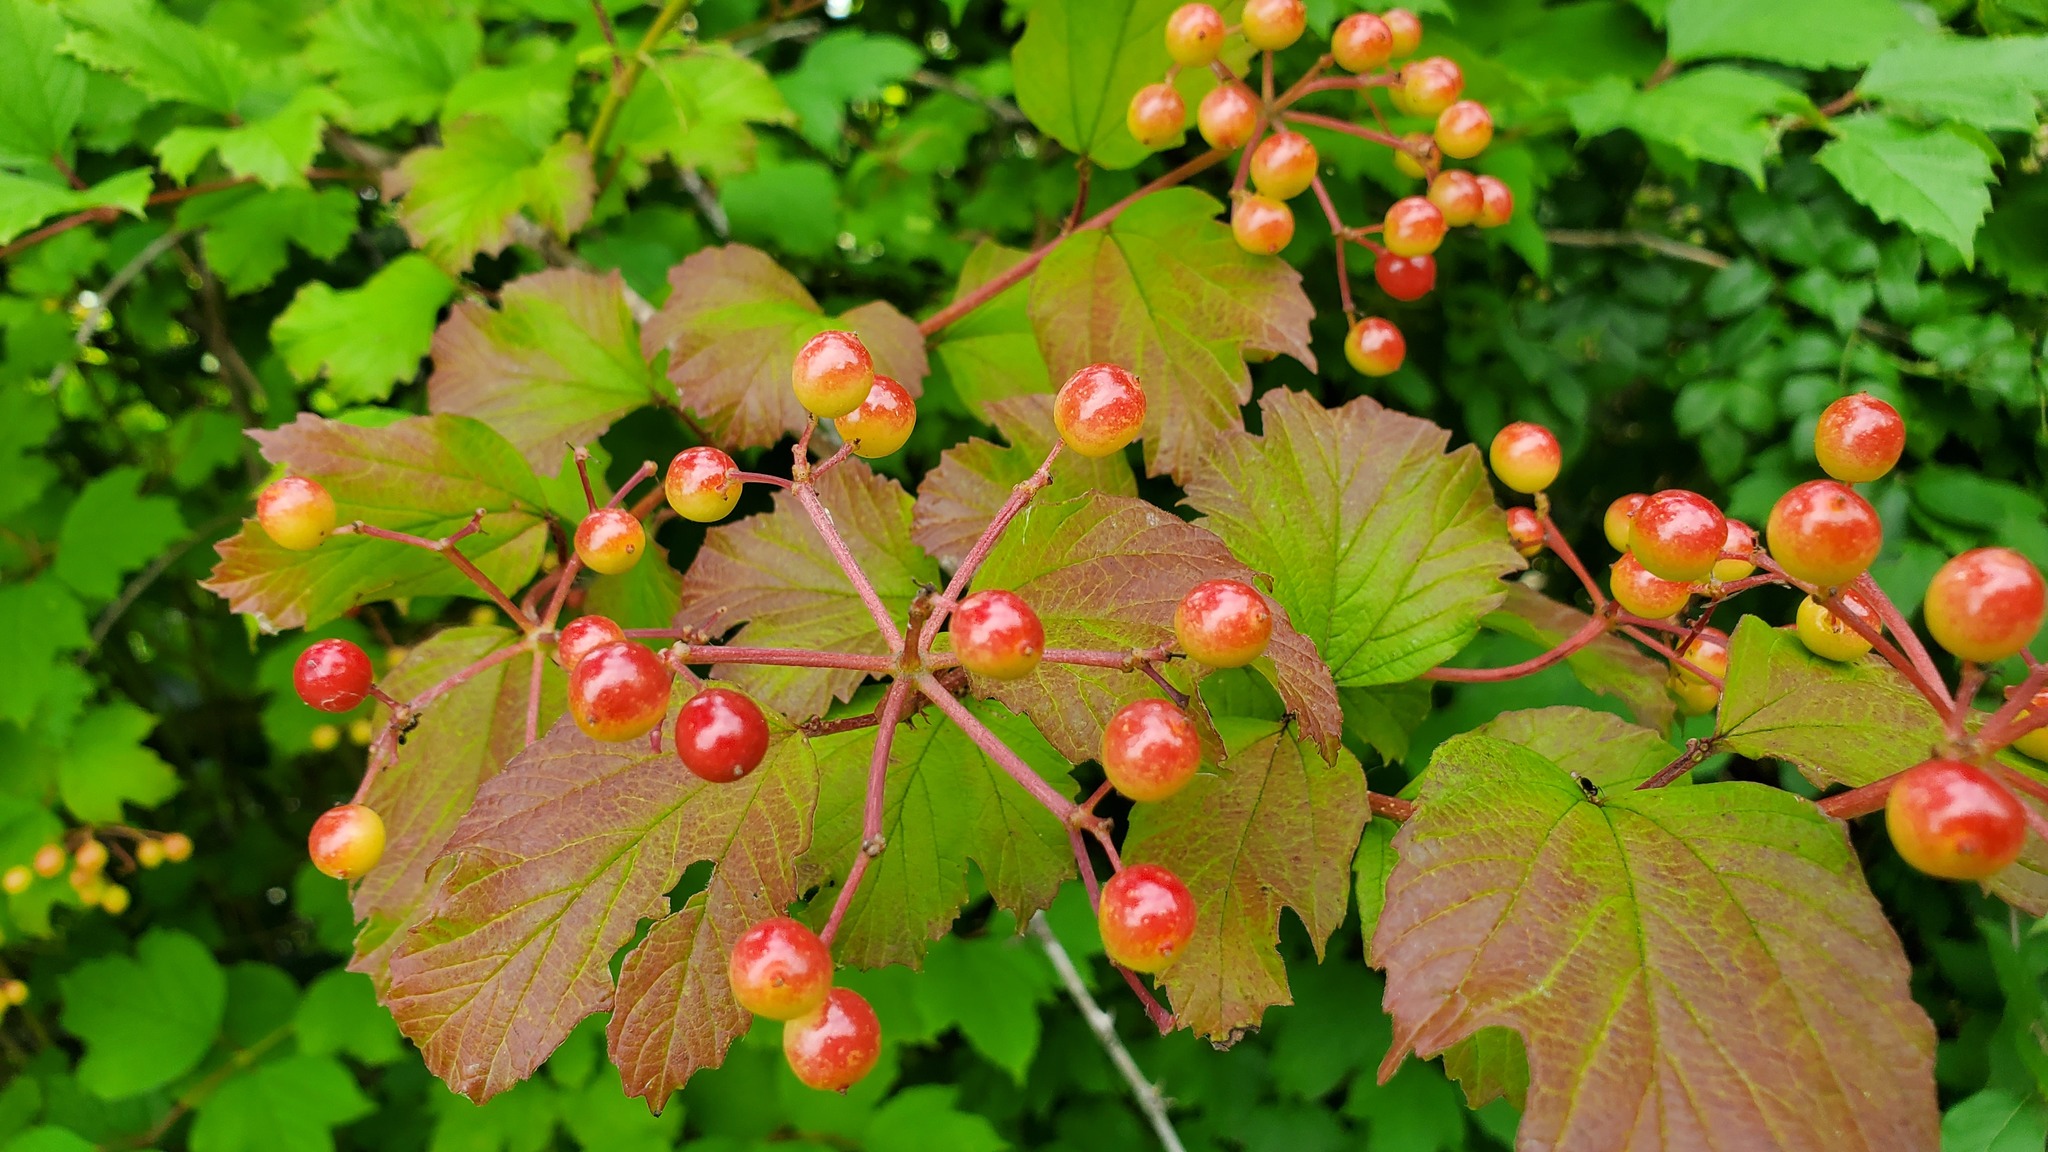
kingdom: Plantae
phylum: Tracheophyta
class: Magnoliopsida
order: Dipsacales
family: Viburnaceae
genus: Viburnum
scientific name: Viburnum opulus
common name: Guelder-rose
